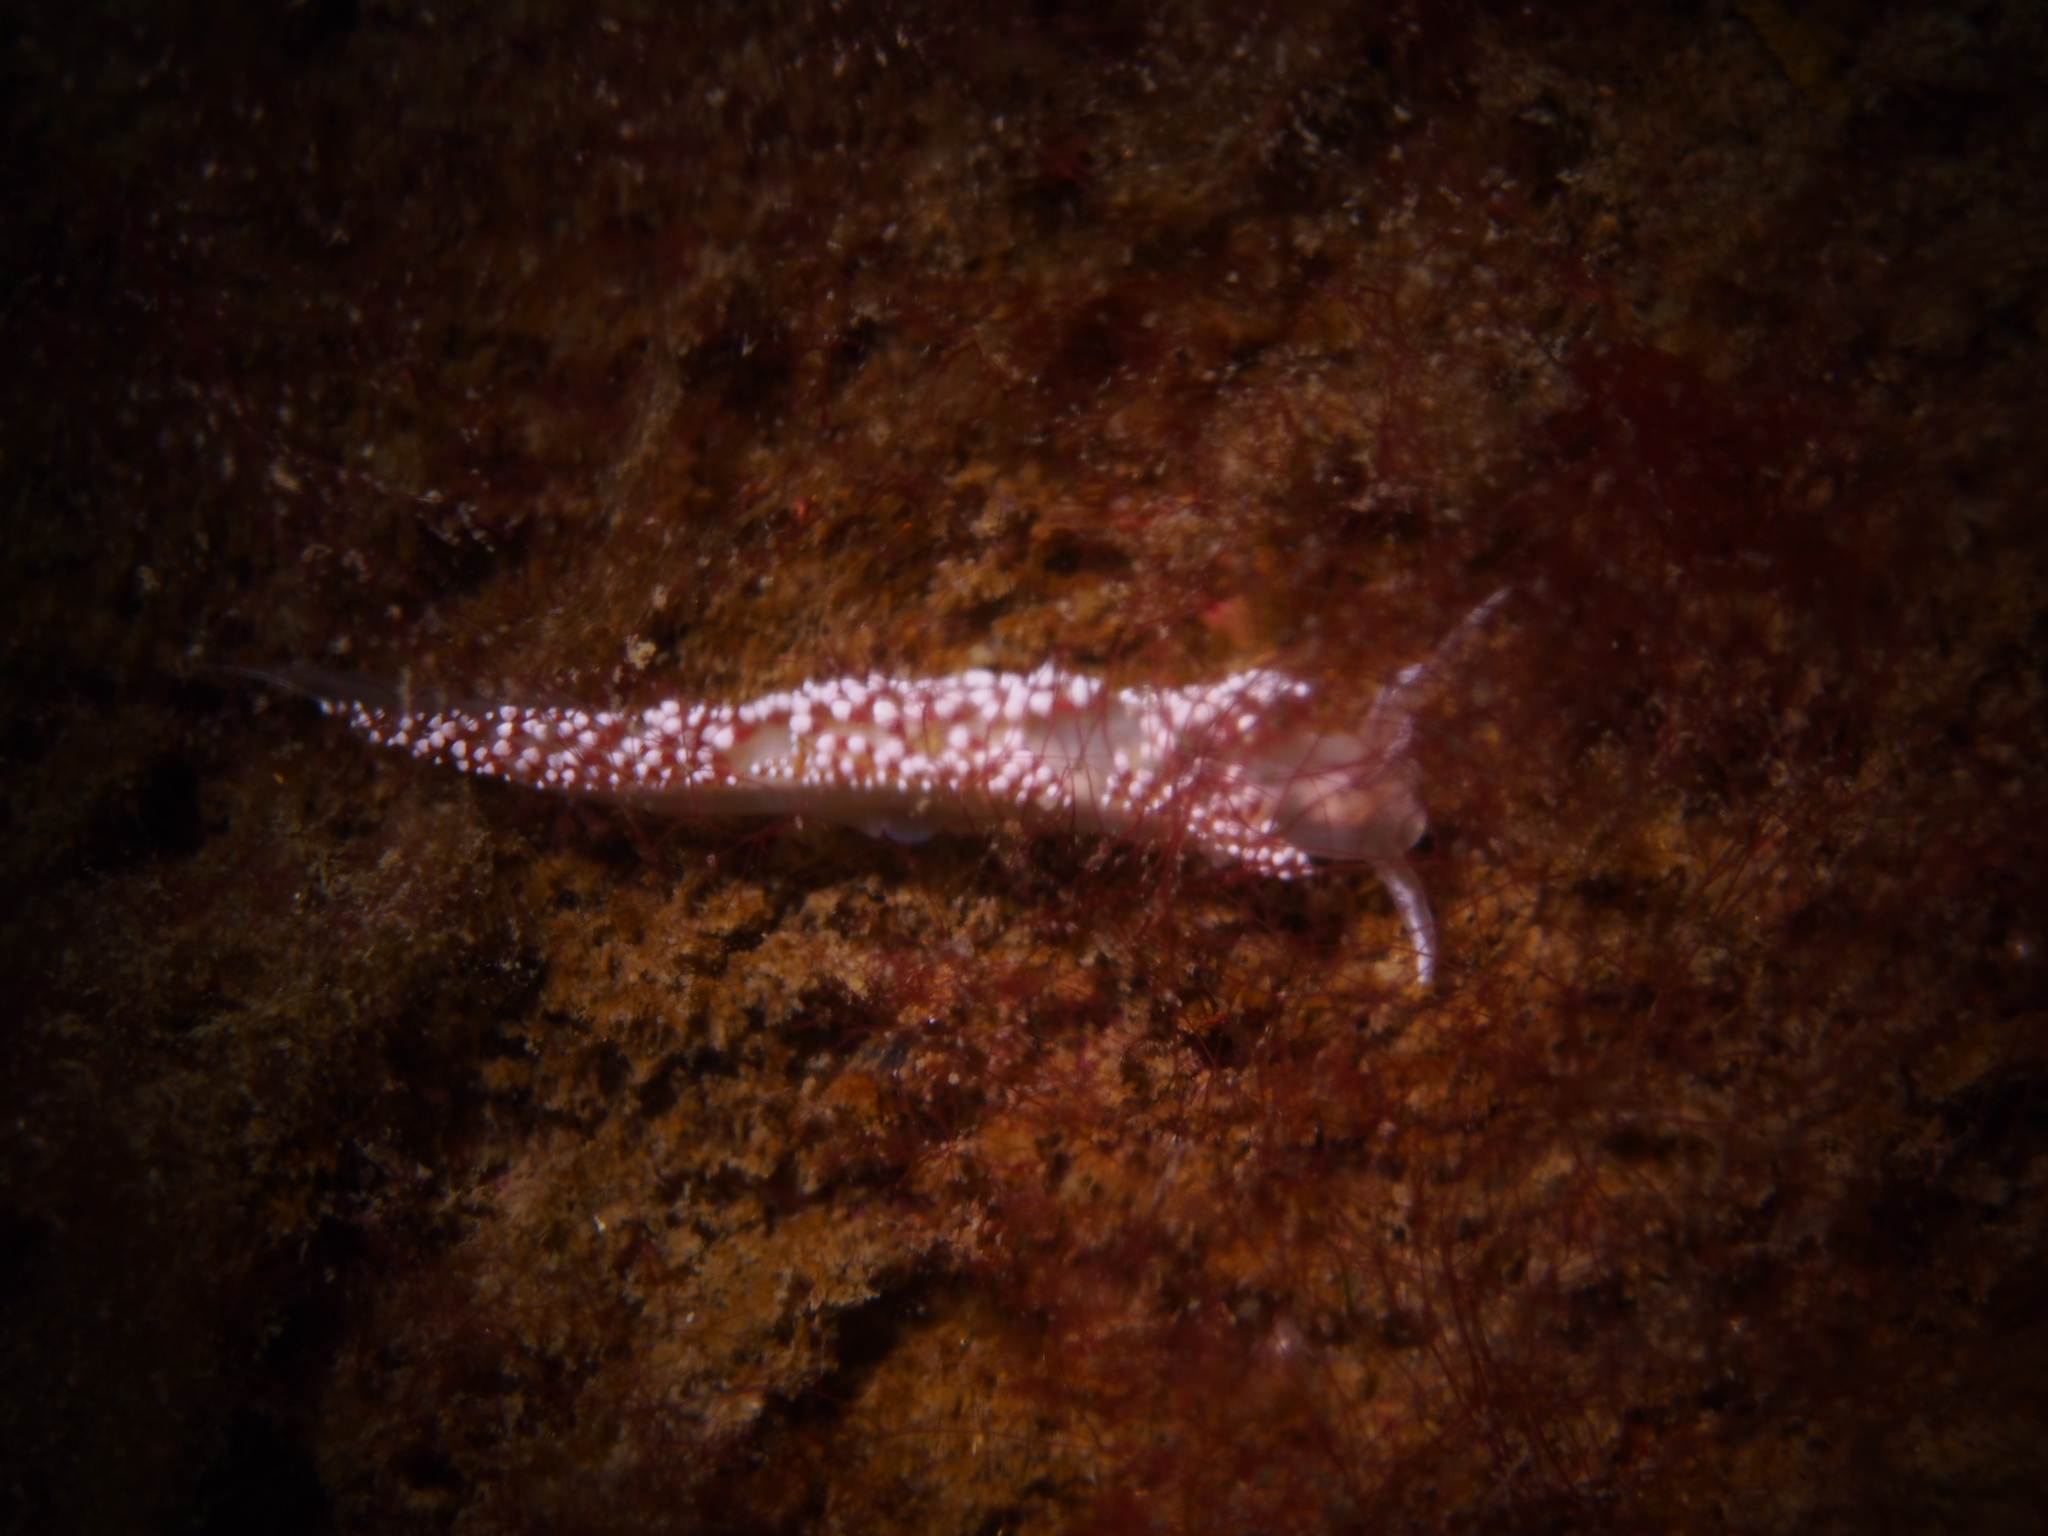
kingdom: Animalia
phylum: Mollusca
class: Gastropoda
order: Nudibranchia
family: Coryphellidae
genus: Coryphella
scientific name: Coryphella verrucosa
